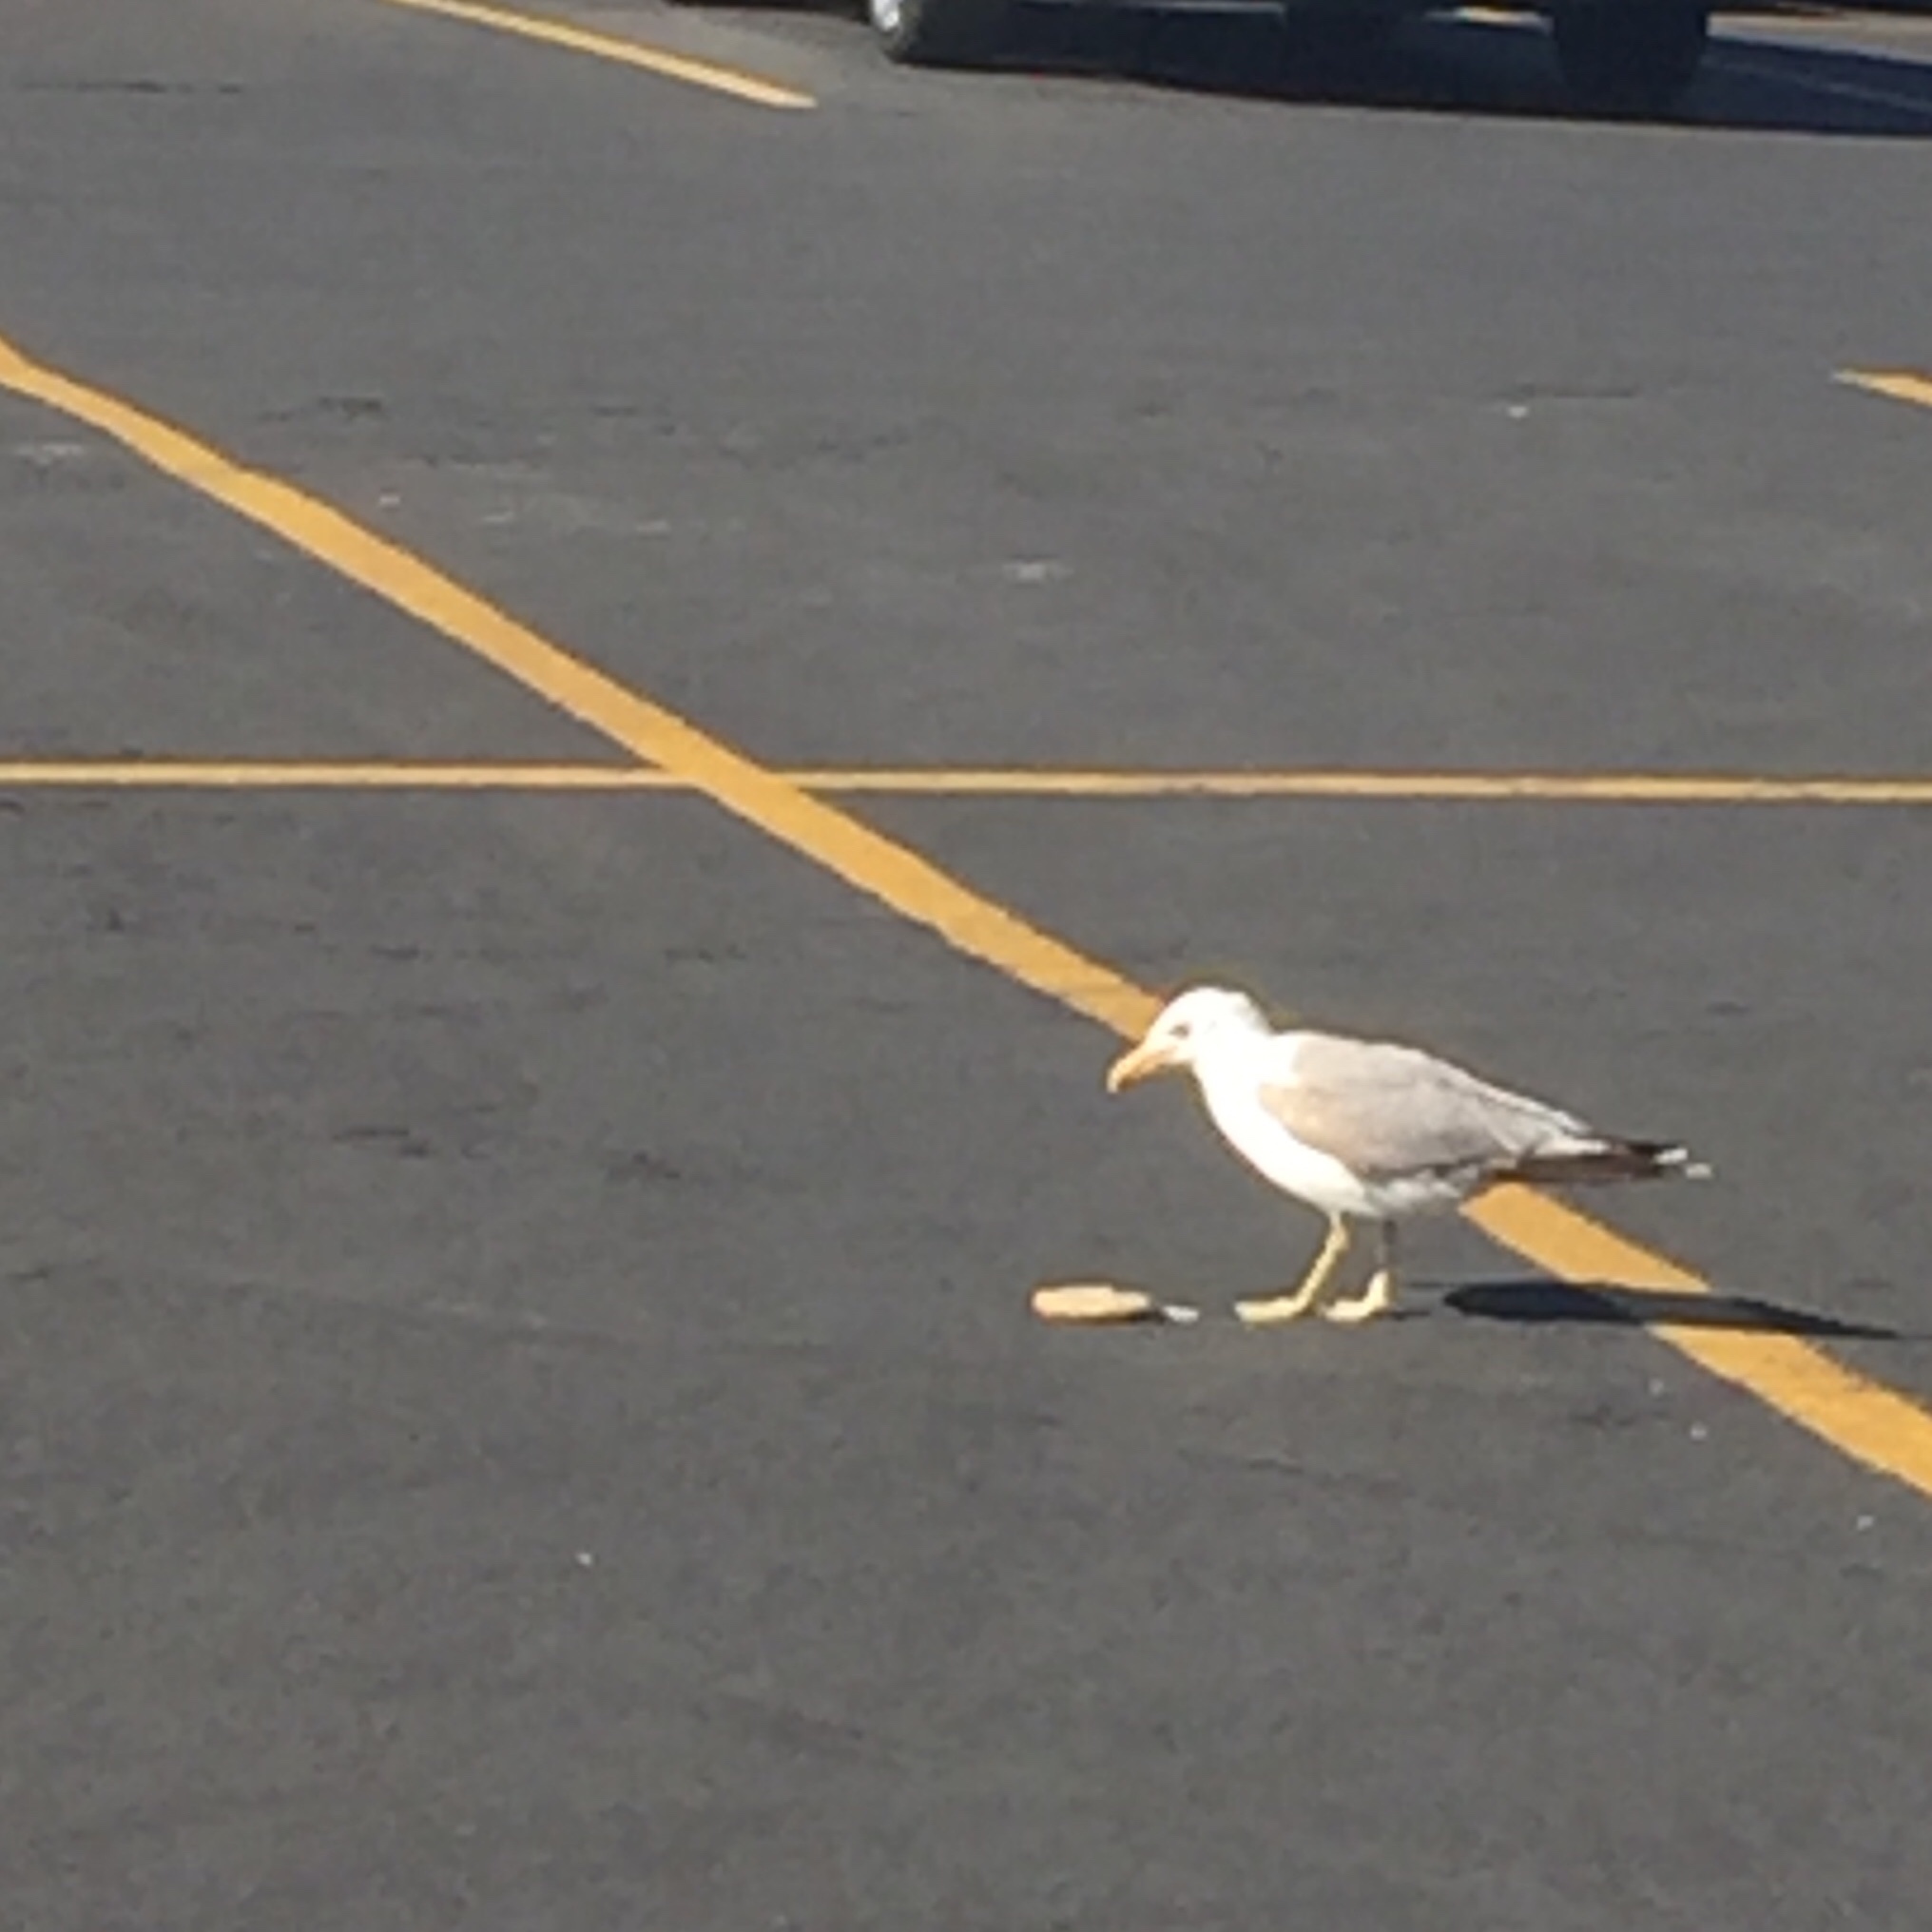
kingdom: Animalia
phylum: Chordata
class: Aves
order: Charadriiformes
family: Laridae
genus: Larus
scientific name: Larus californicus
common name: California gull
